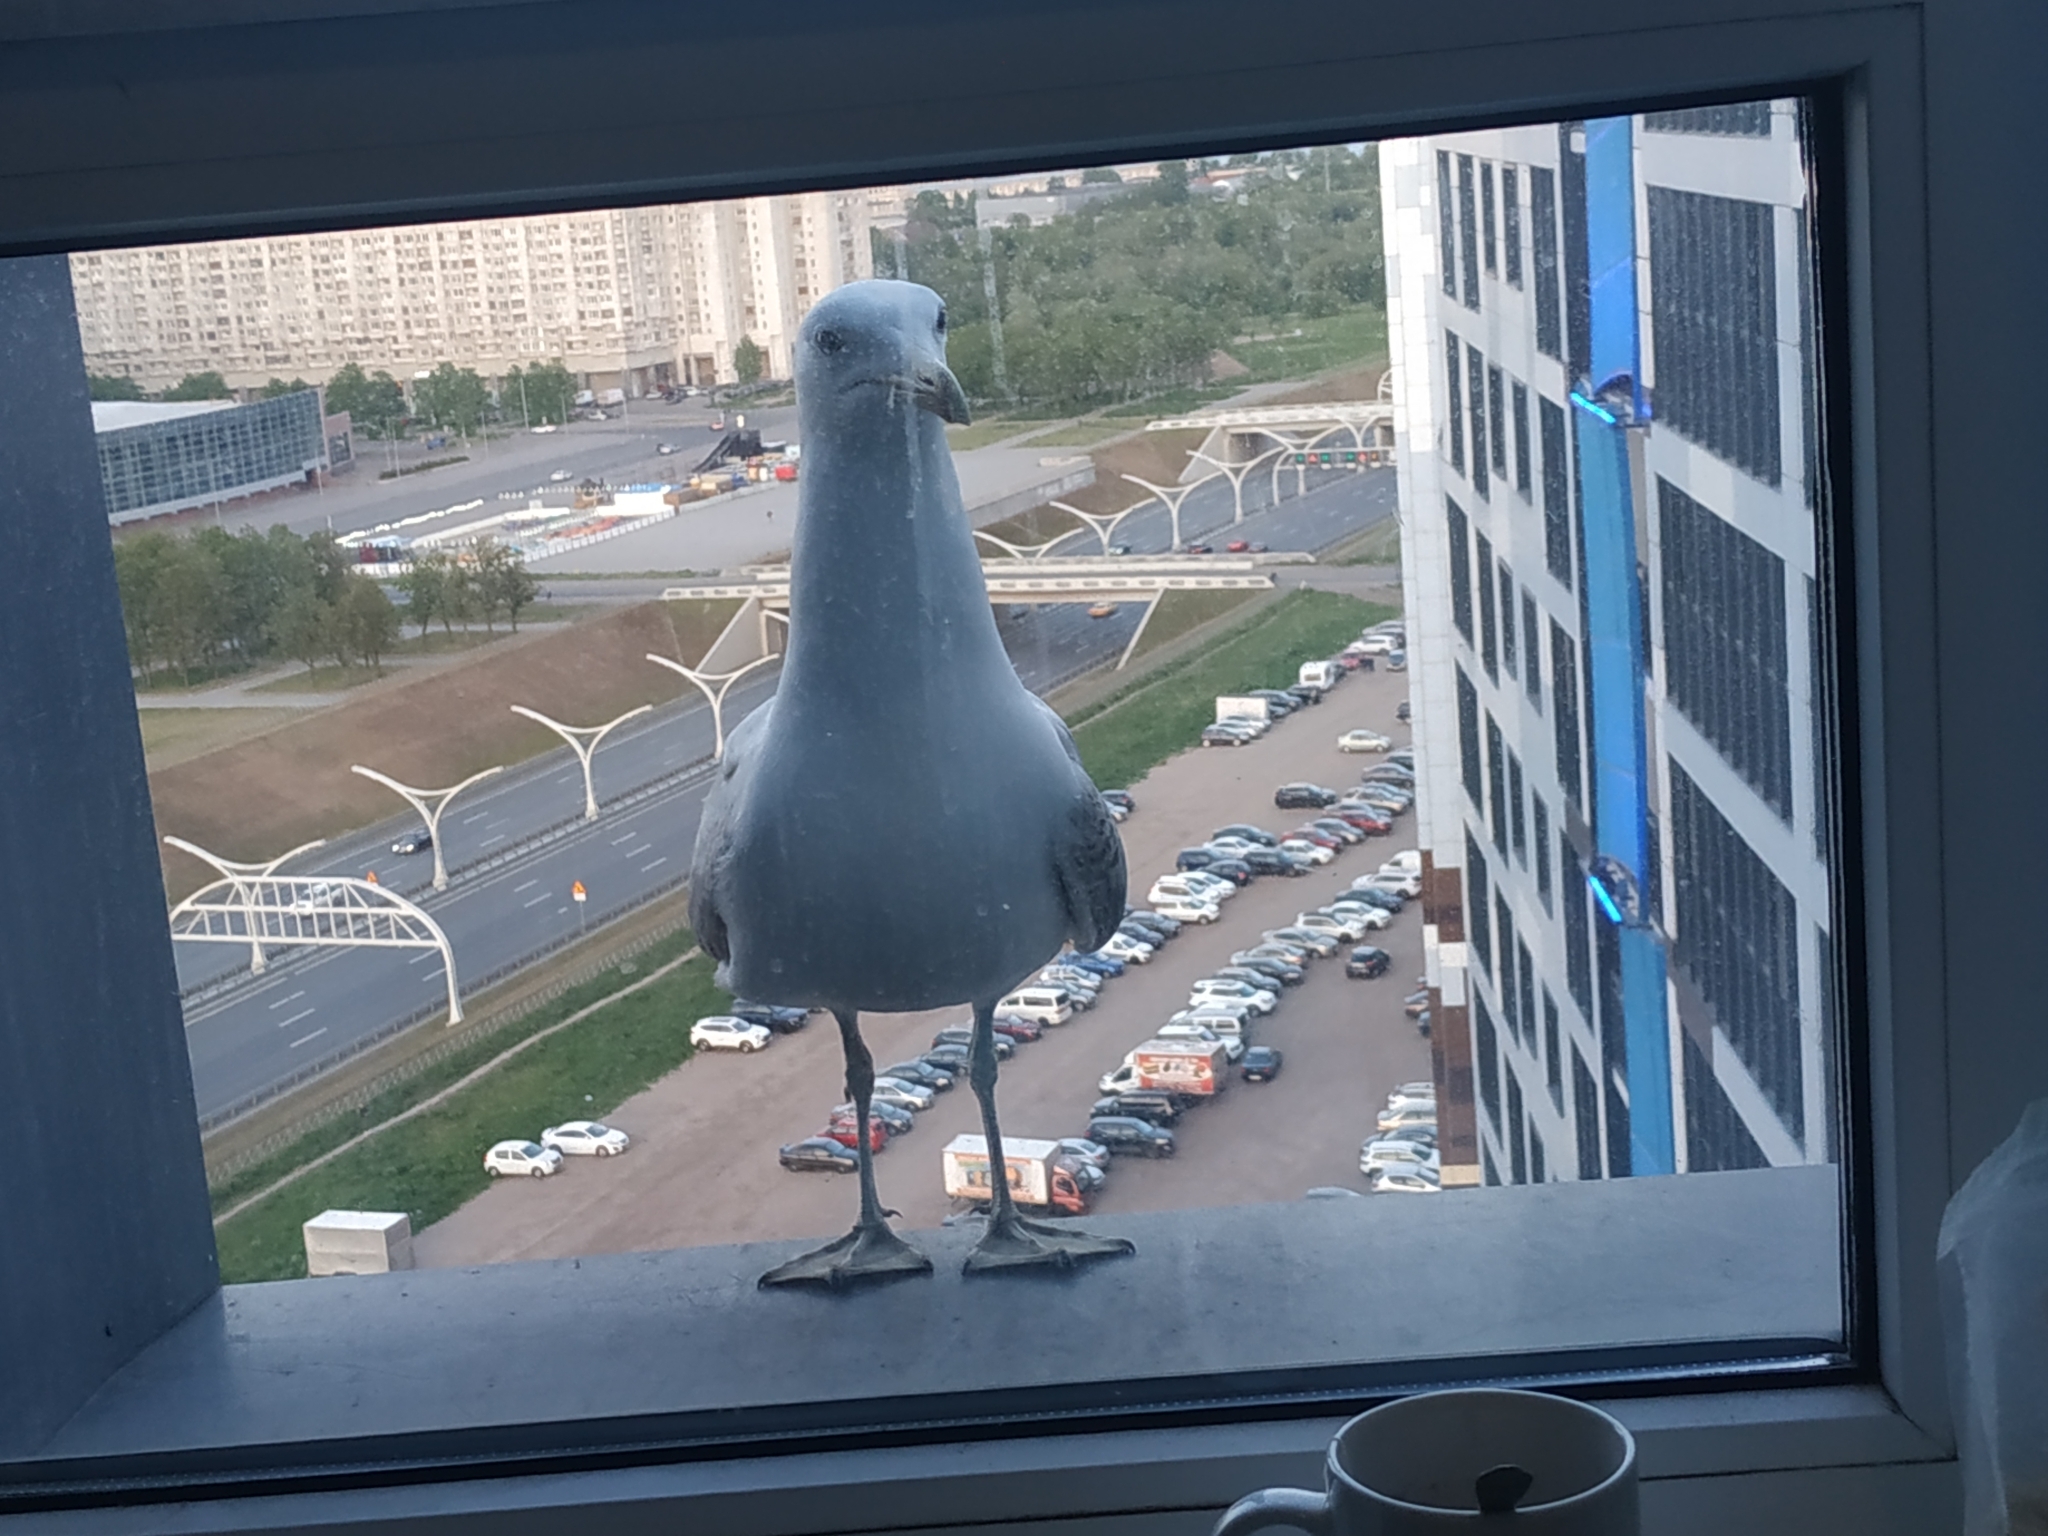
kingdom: Animalia
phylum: Chordata
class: Aves
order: Charadriiformes
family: Laridae
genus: Larus
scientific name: Larus argentatus
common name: Herring gull
